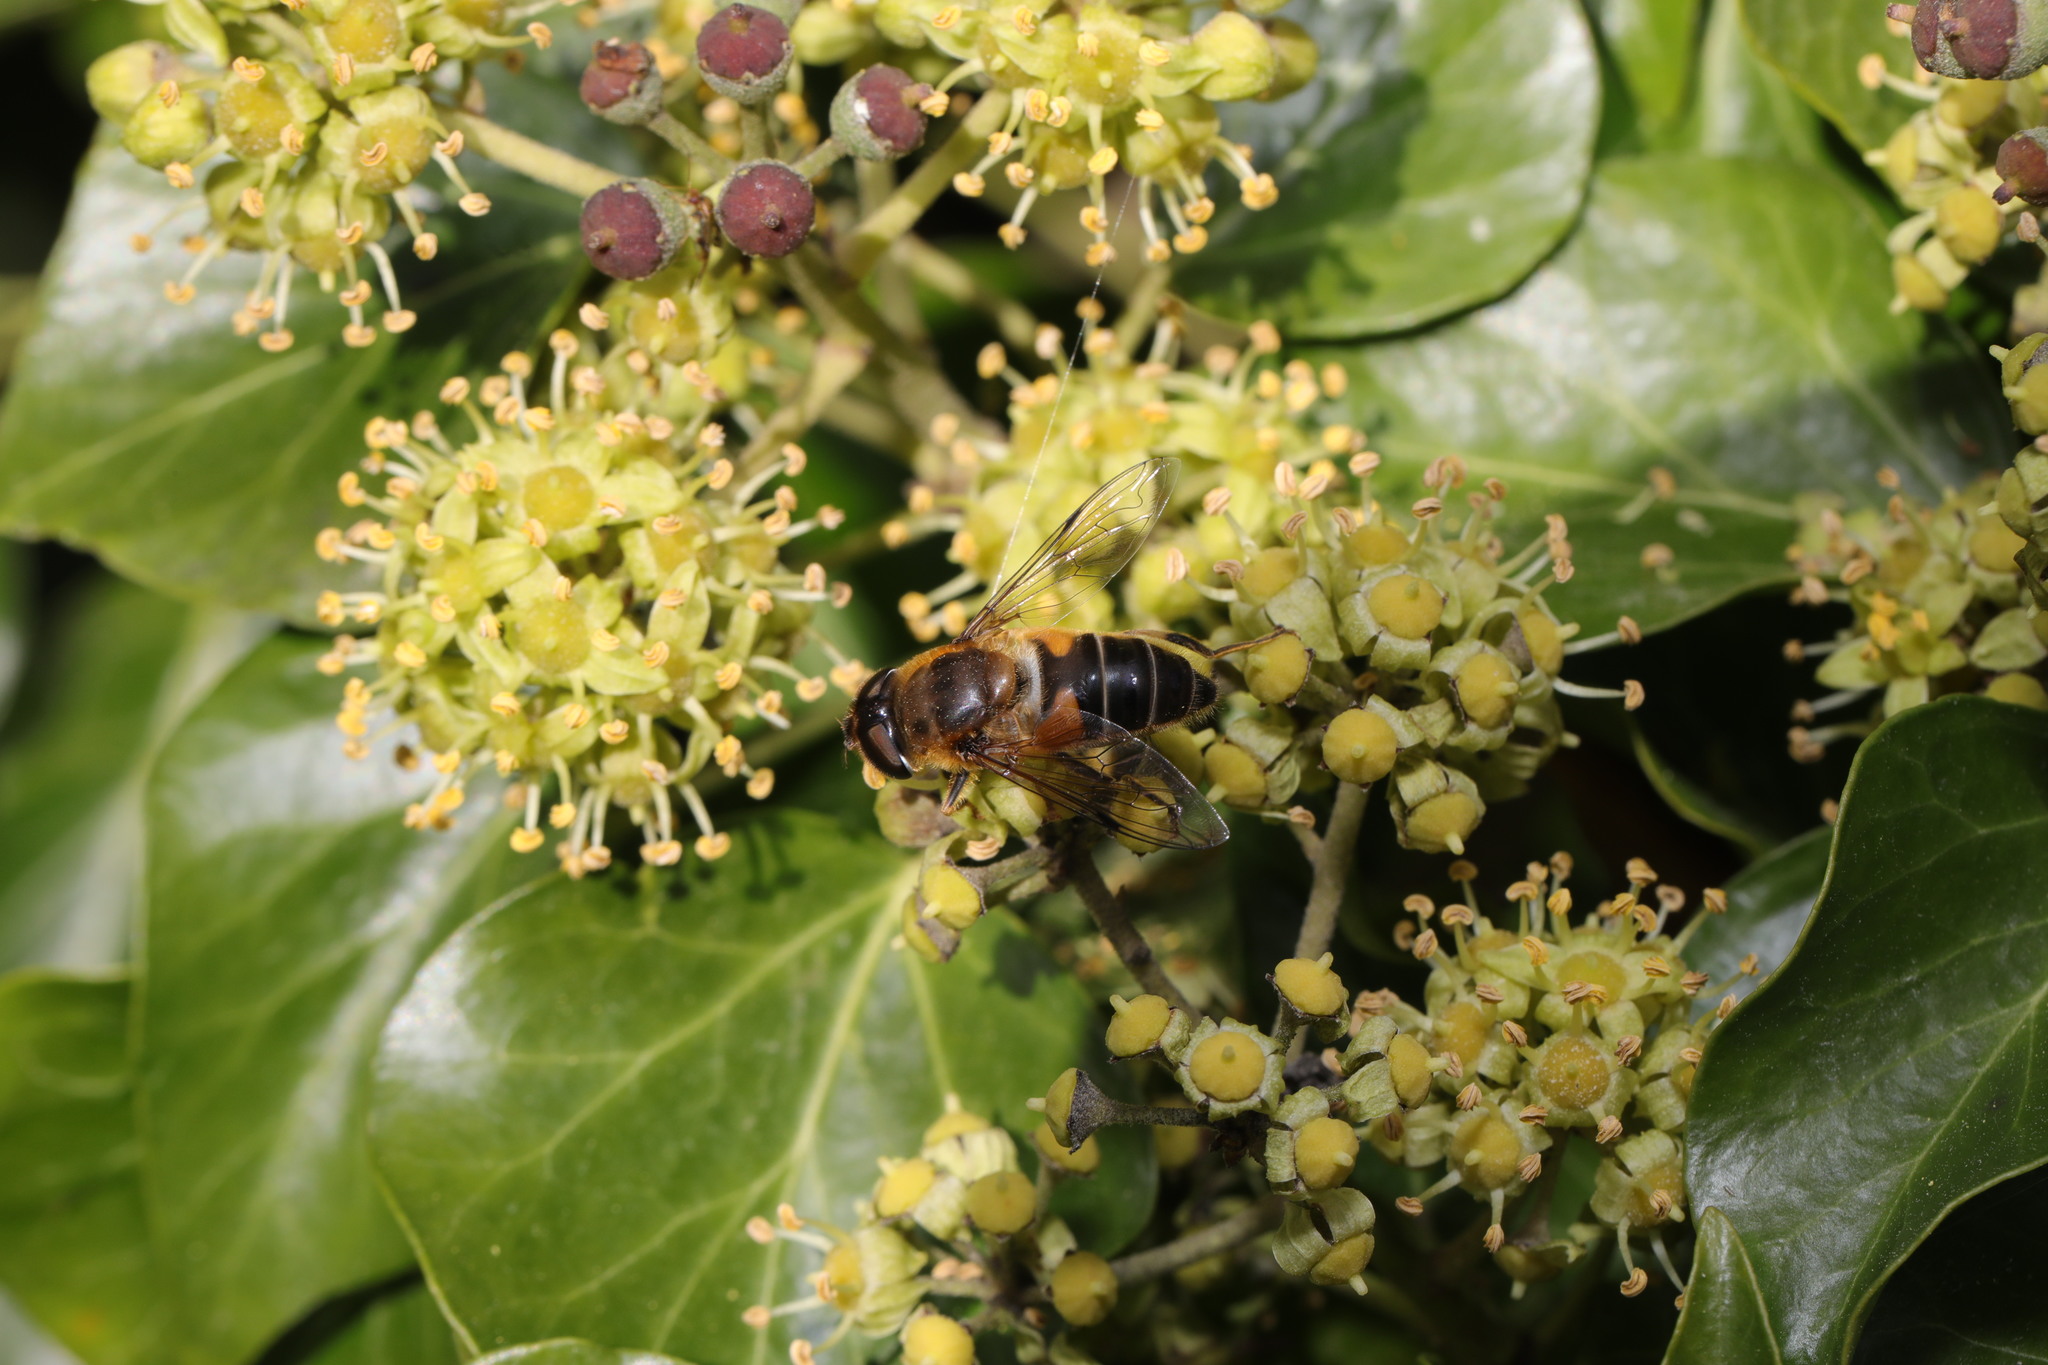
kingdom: Animalia
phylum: Arthropoda
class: Insecta
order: Diptera
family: Syrphidae
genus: Eristalis
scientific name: Eristalis pertinax
